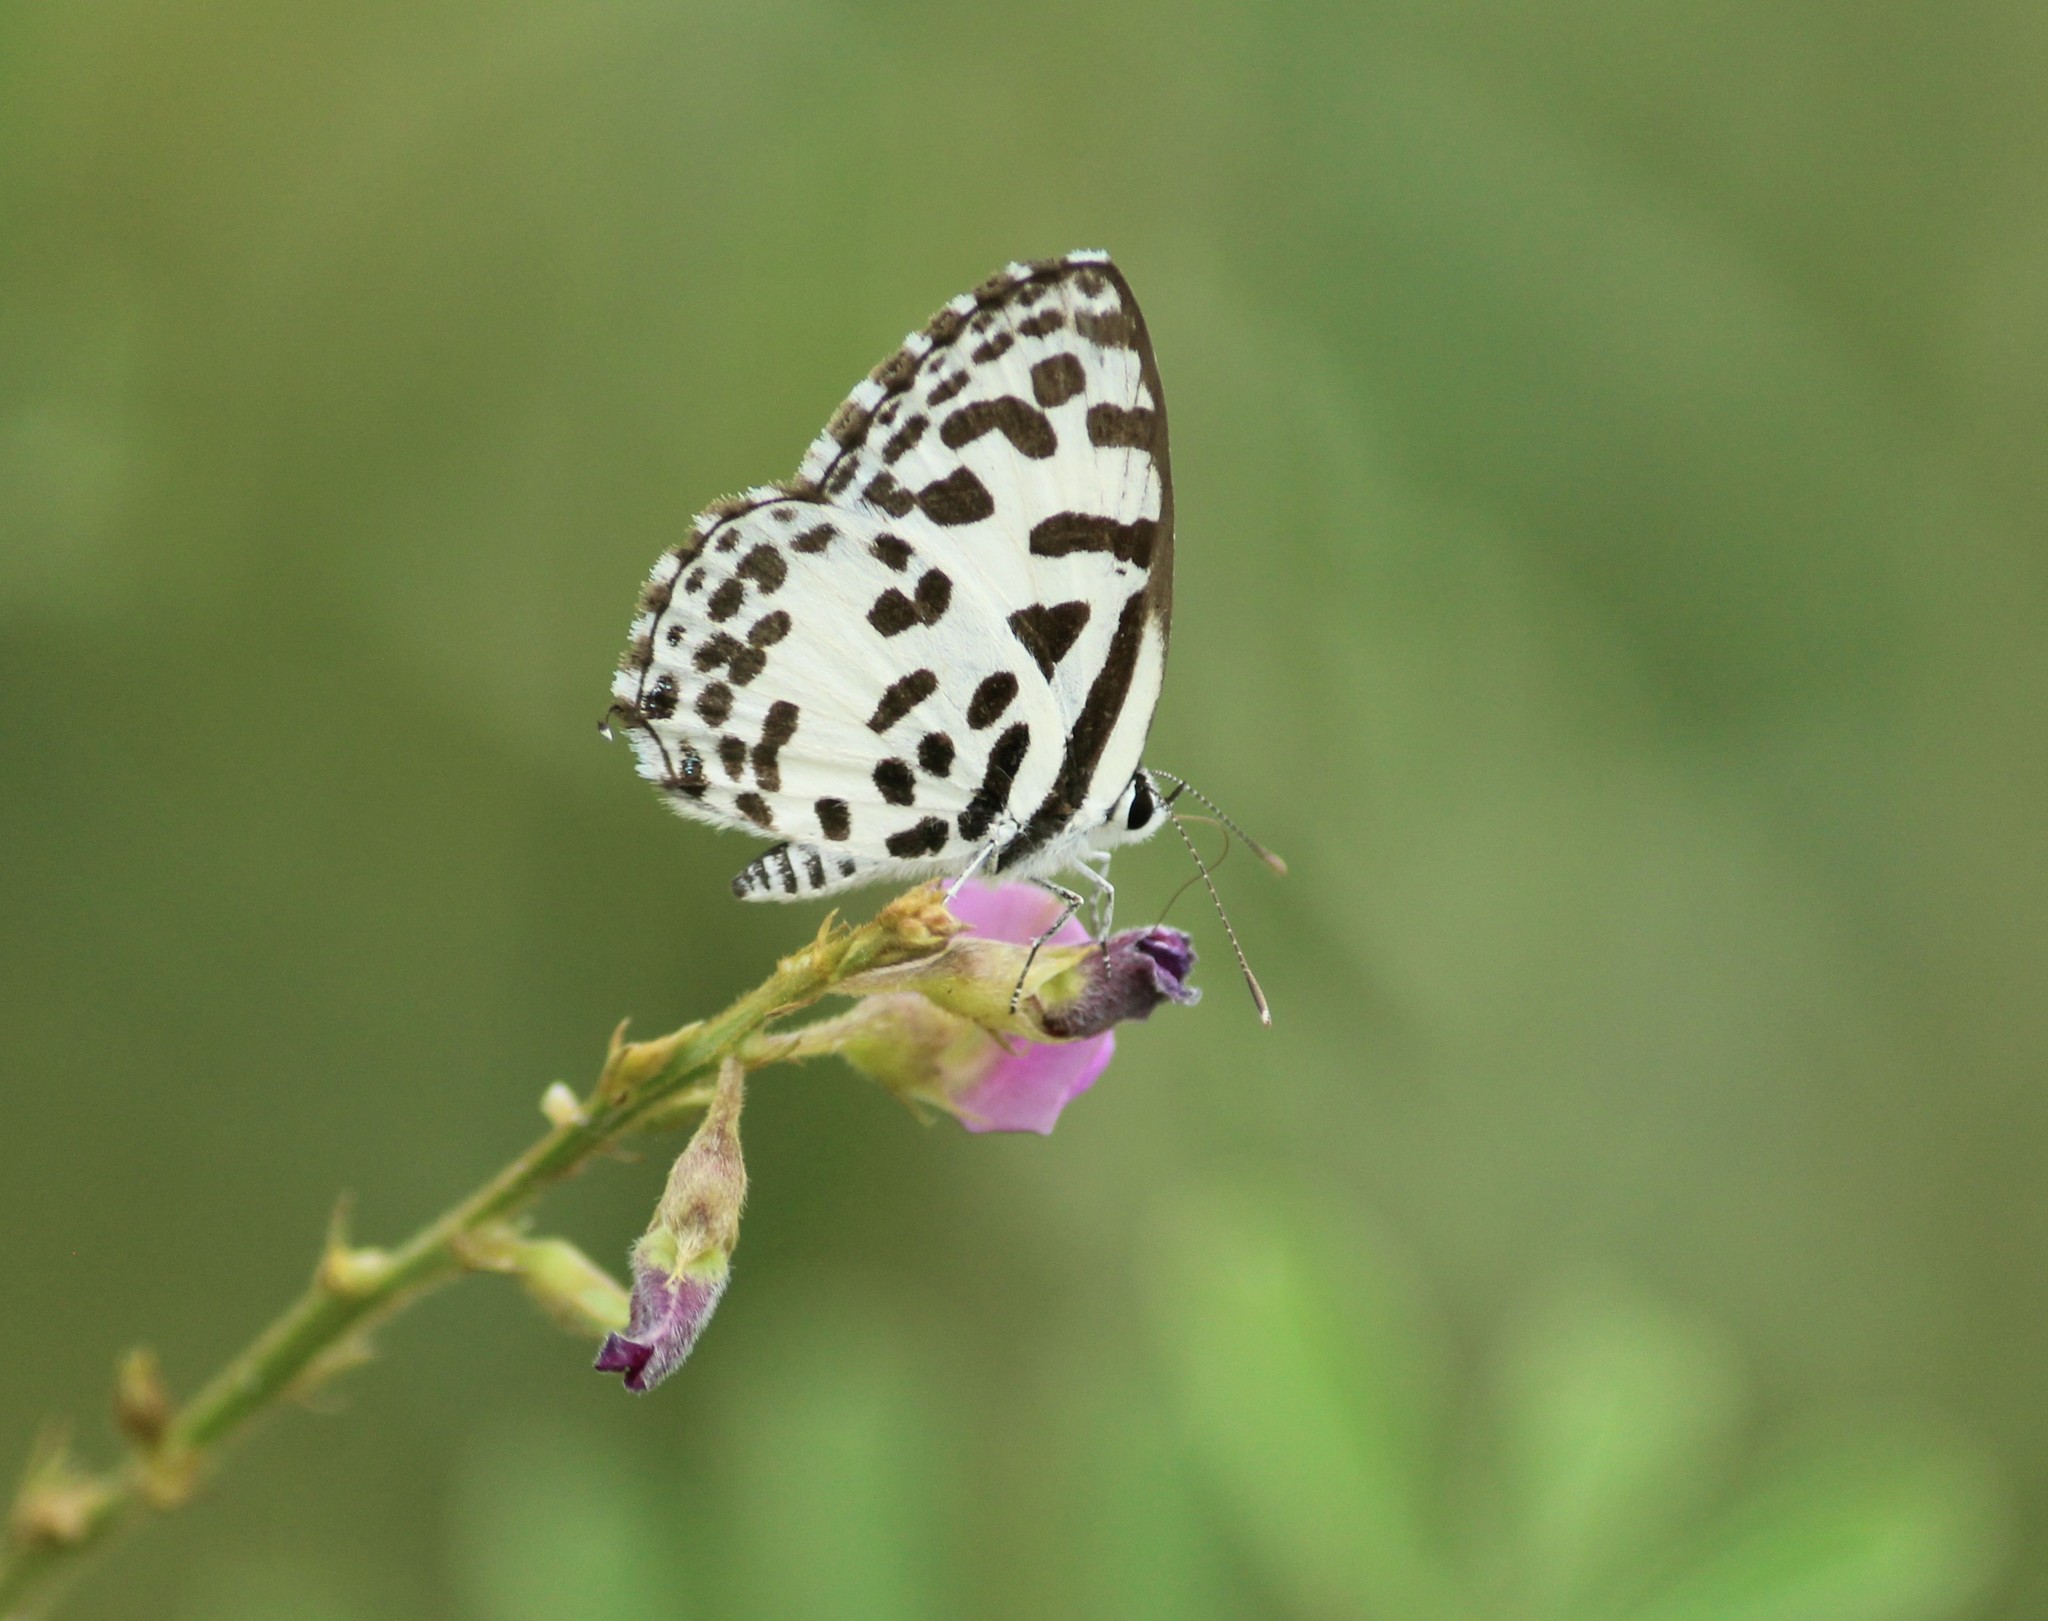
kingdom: Animalia
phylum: Arthropoda
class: Insecta
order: Lepidoptera
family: Lycaenidae
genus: Castalius
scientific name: Castalius rosimon
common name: Common pierrot
